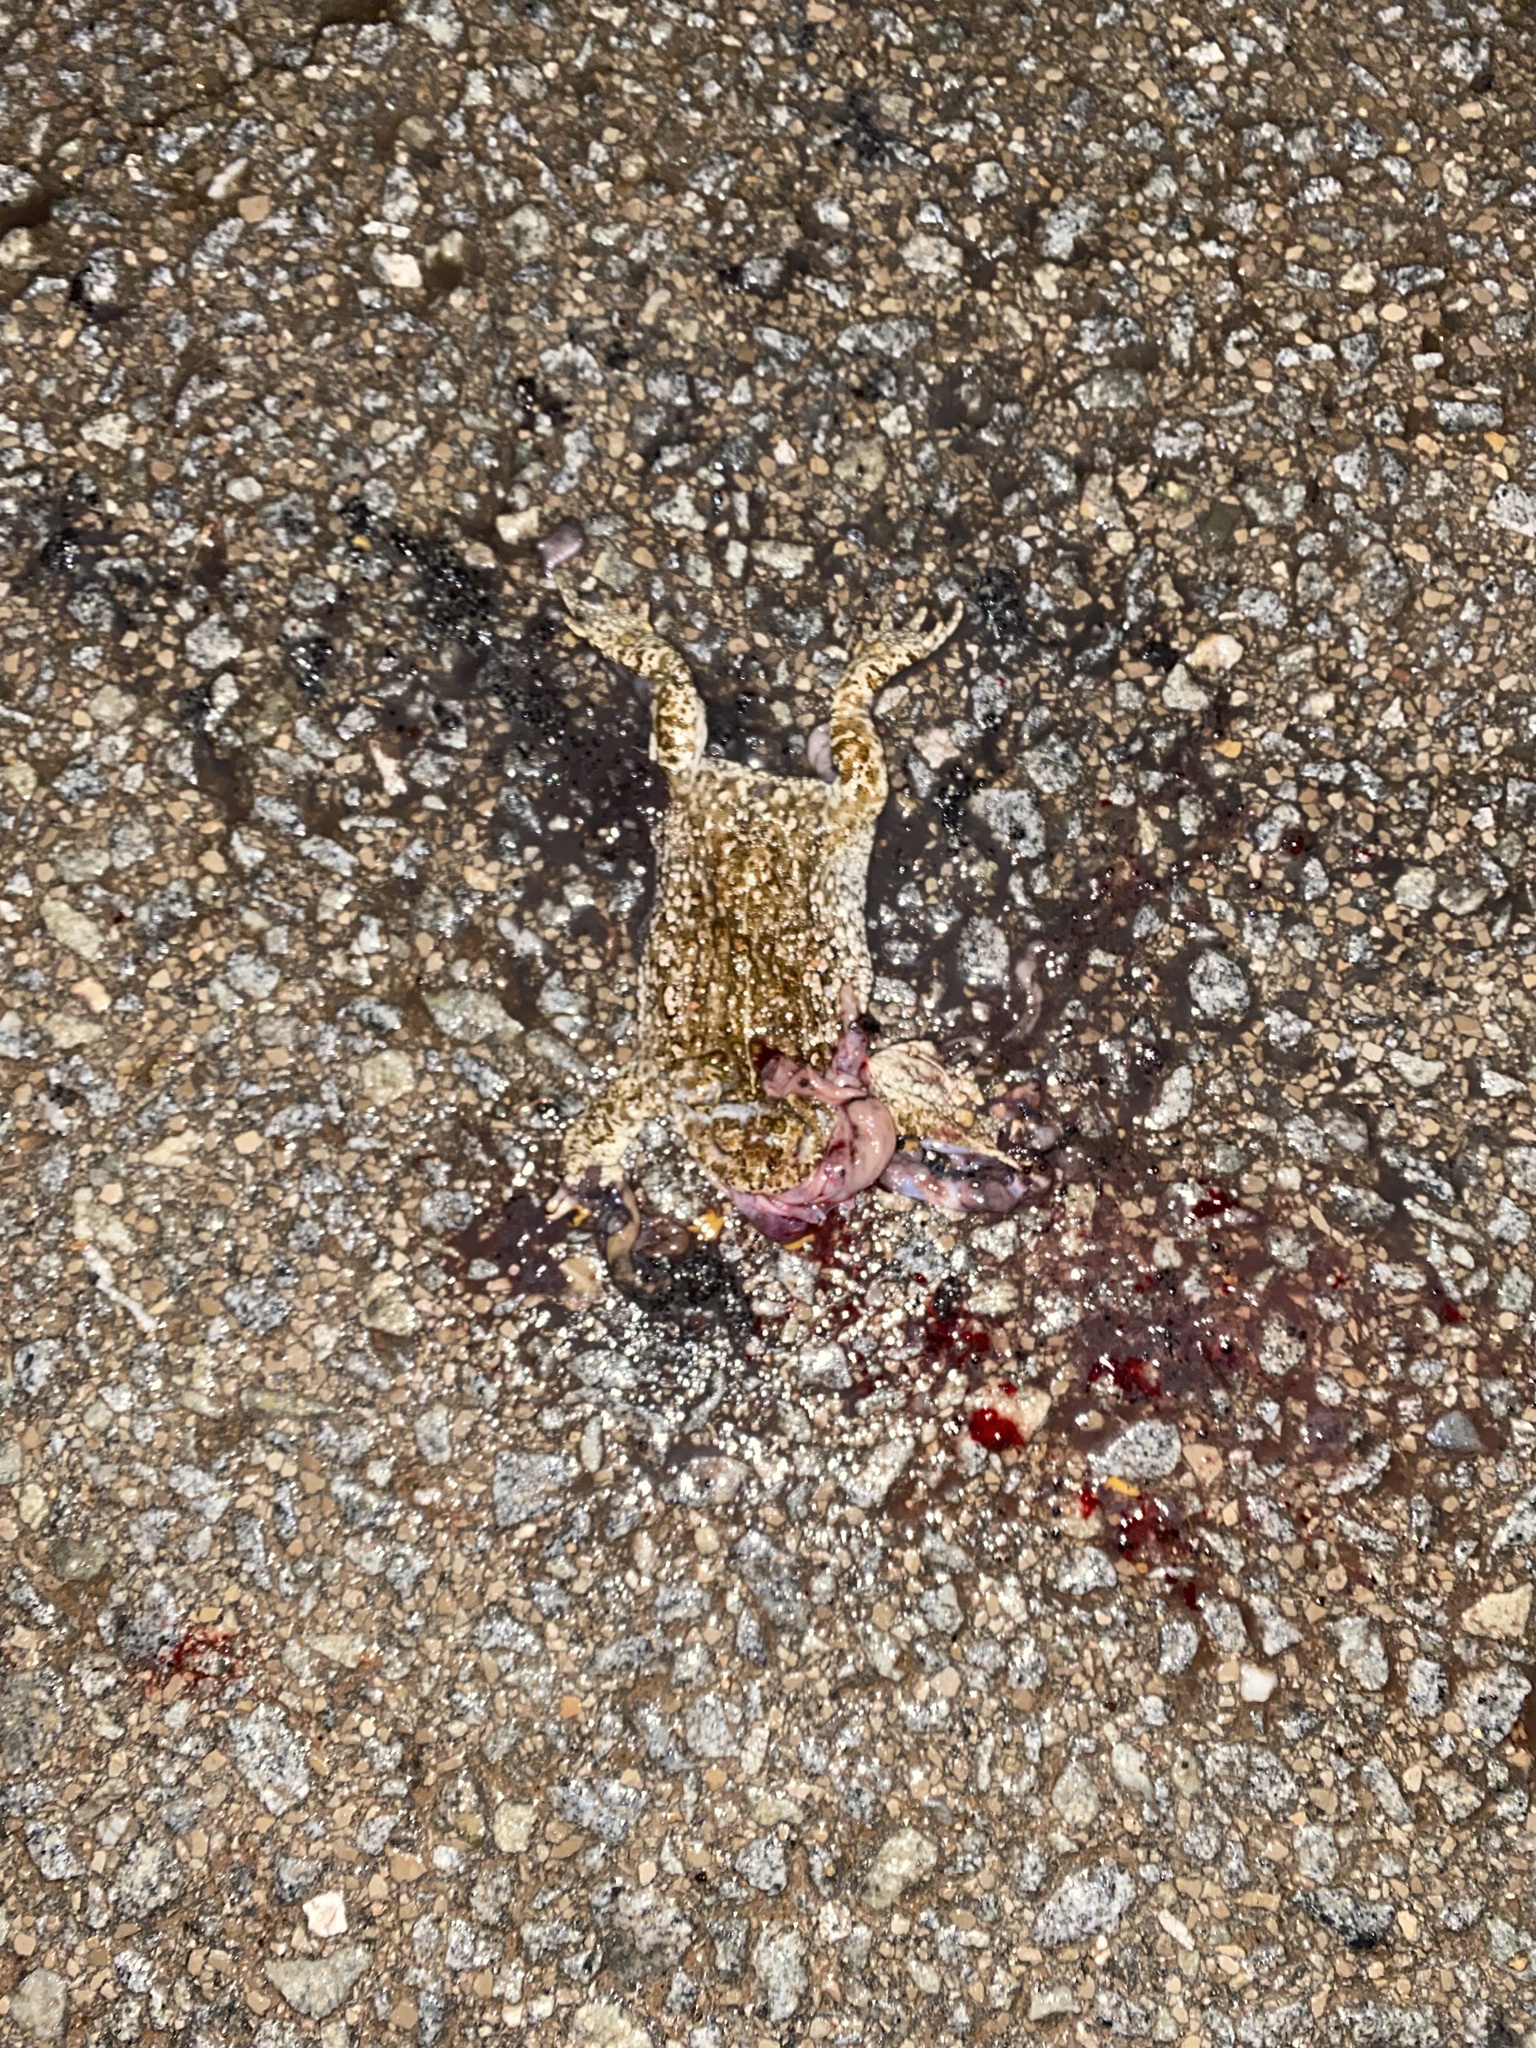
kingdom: Animalia
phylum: Chordata
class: Amphibia
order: Anura
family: Bufonidae
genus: Epidalea
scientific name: Epidalea calamita
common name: Natterjack toad
